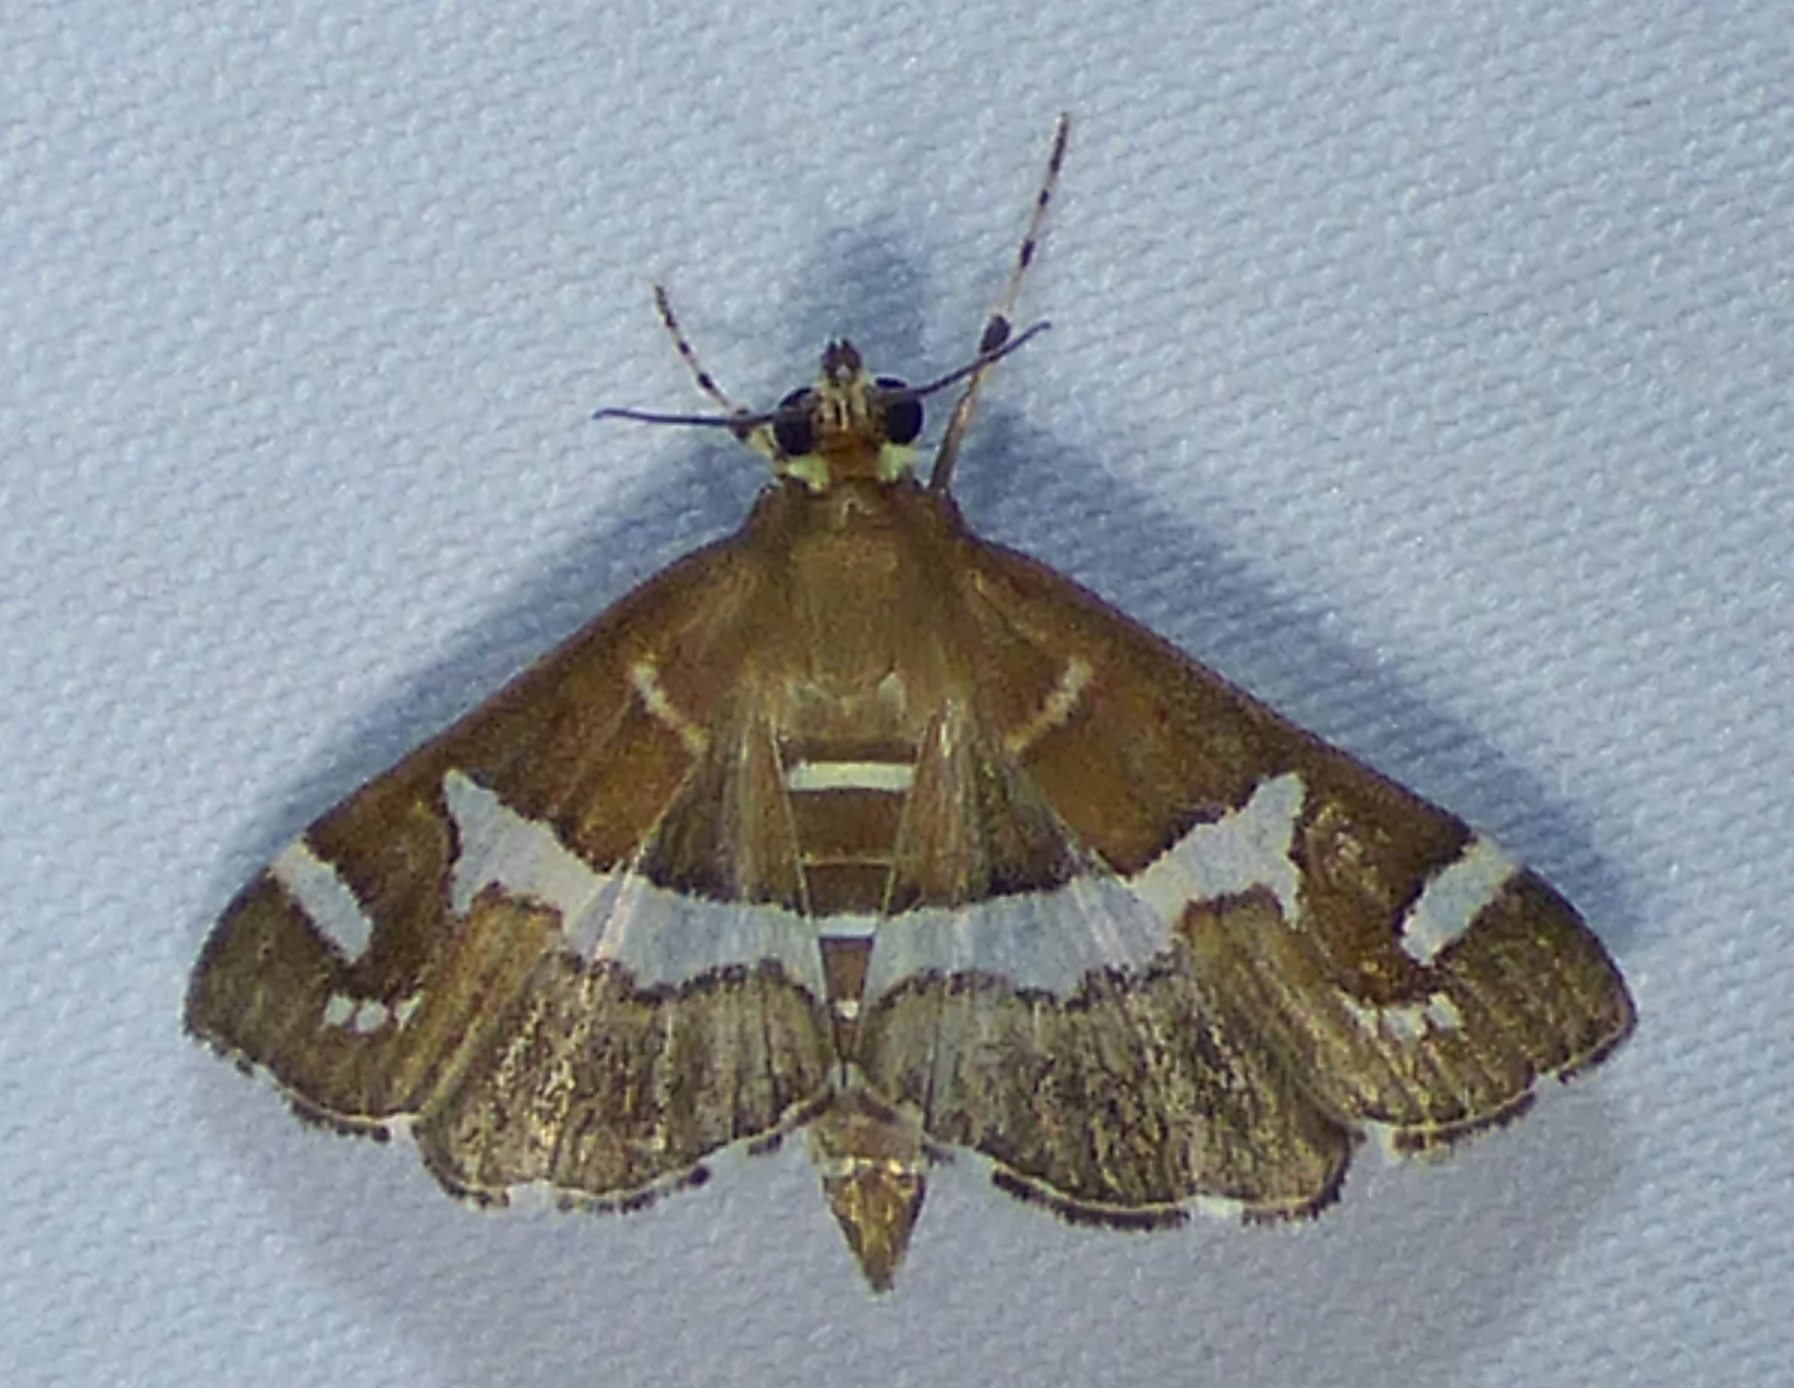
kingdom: Animalia
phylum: Arthropoda
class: Insecta
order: Lepidoptera
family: Crambidae
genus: Spoladea
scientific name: Spoladea recurvalis
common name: Beet webworm moth
